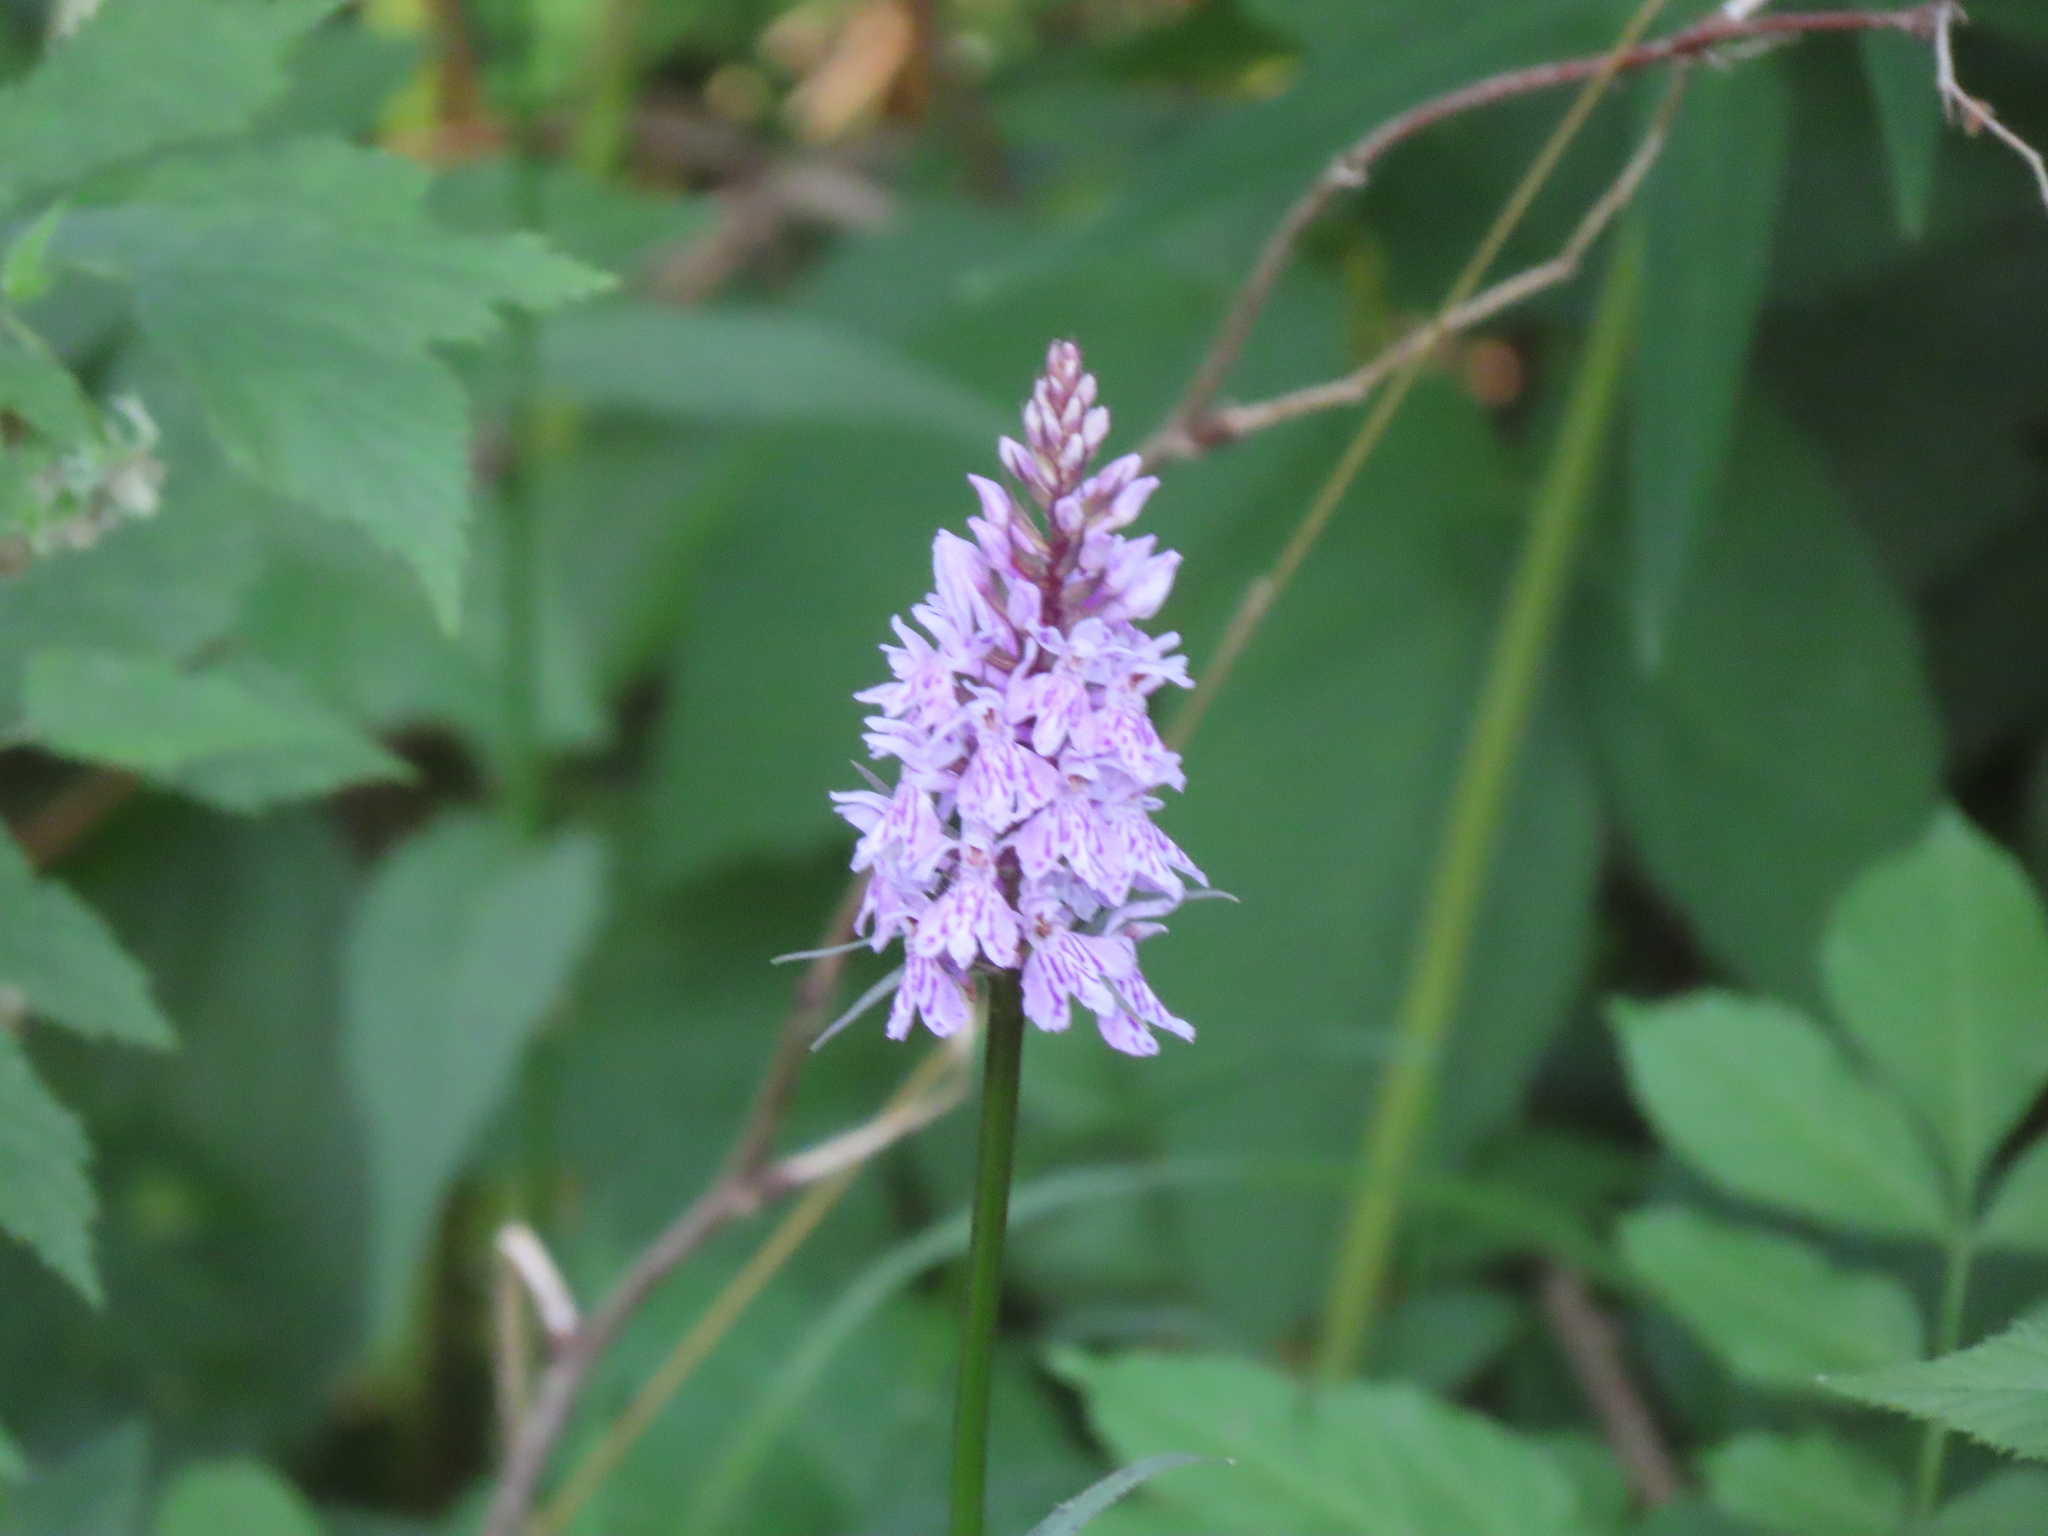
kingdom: Plantae
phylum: Tracheophyta
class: Liliopsida
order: Asparagales
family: Orchidaceae
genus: Dactylorhiza
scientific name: Dactylorhiza maculata
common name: Heath spotted-orchid
